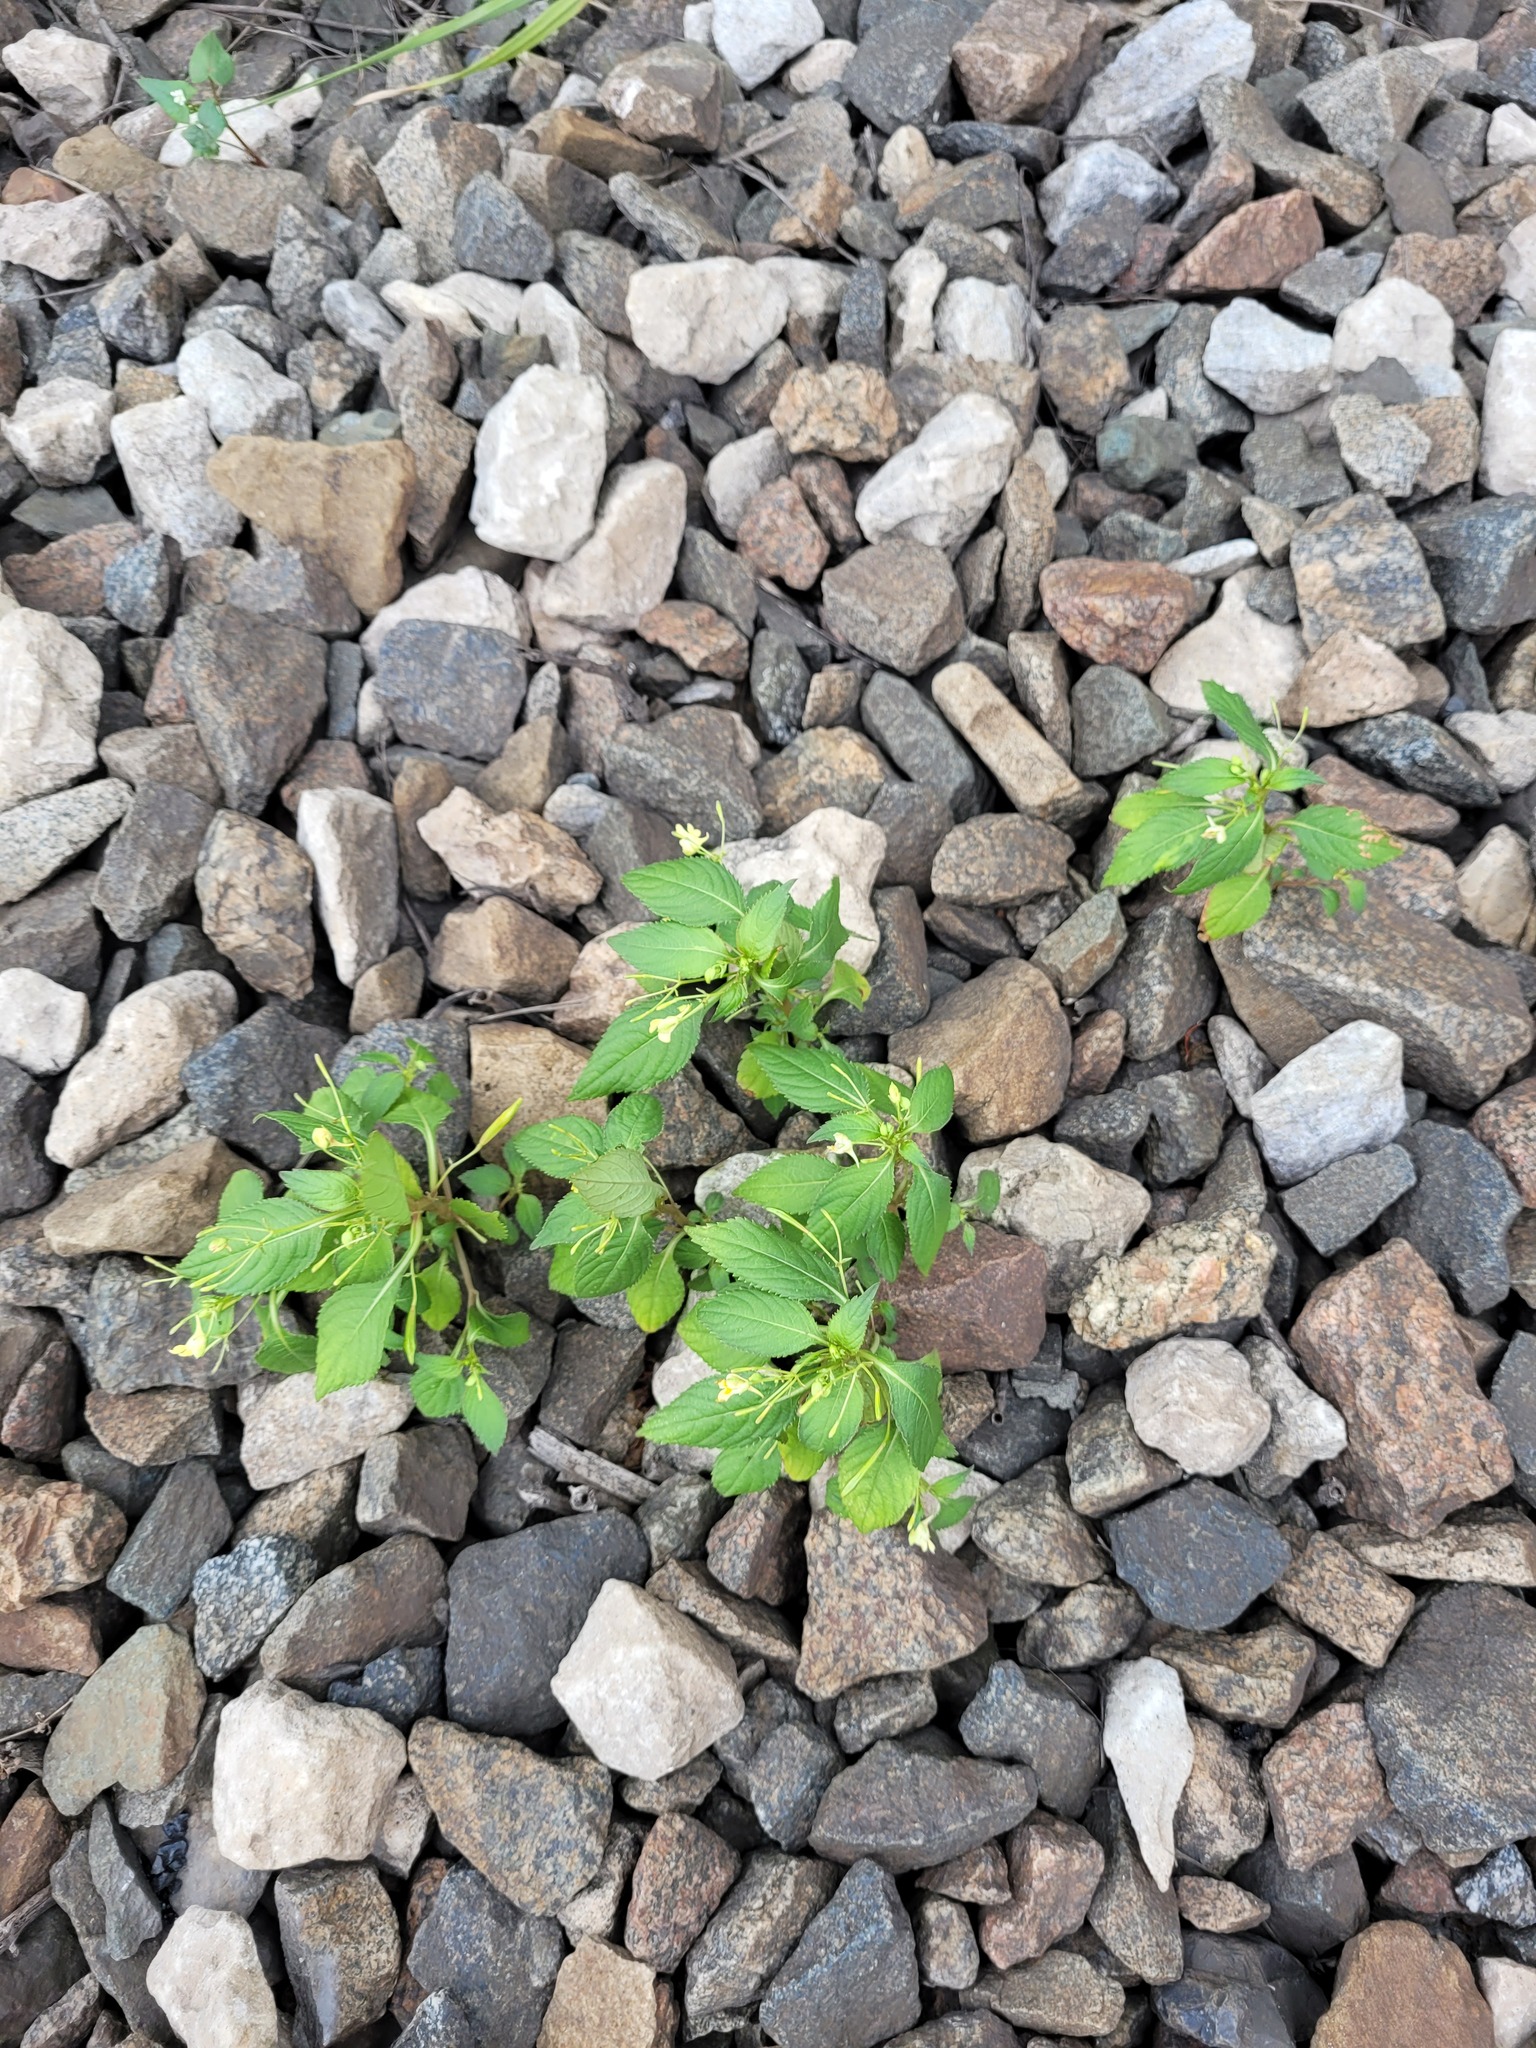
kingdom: Plantae
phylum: Tracheophyta
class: Magnoliopsida
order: Ericales
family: Balsaminaceae
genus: Impatiens
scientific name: Impatiens parviflora
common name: Small balsam
